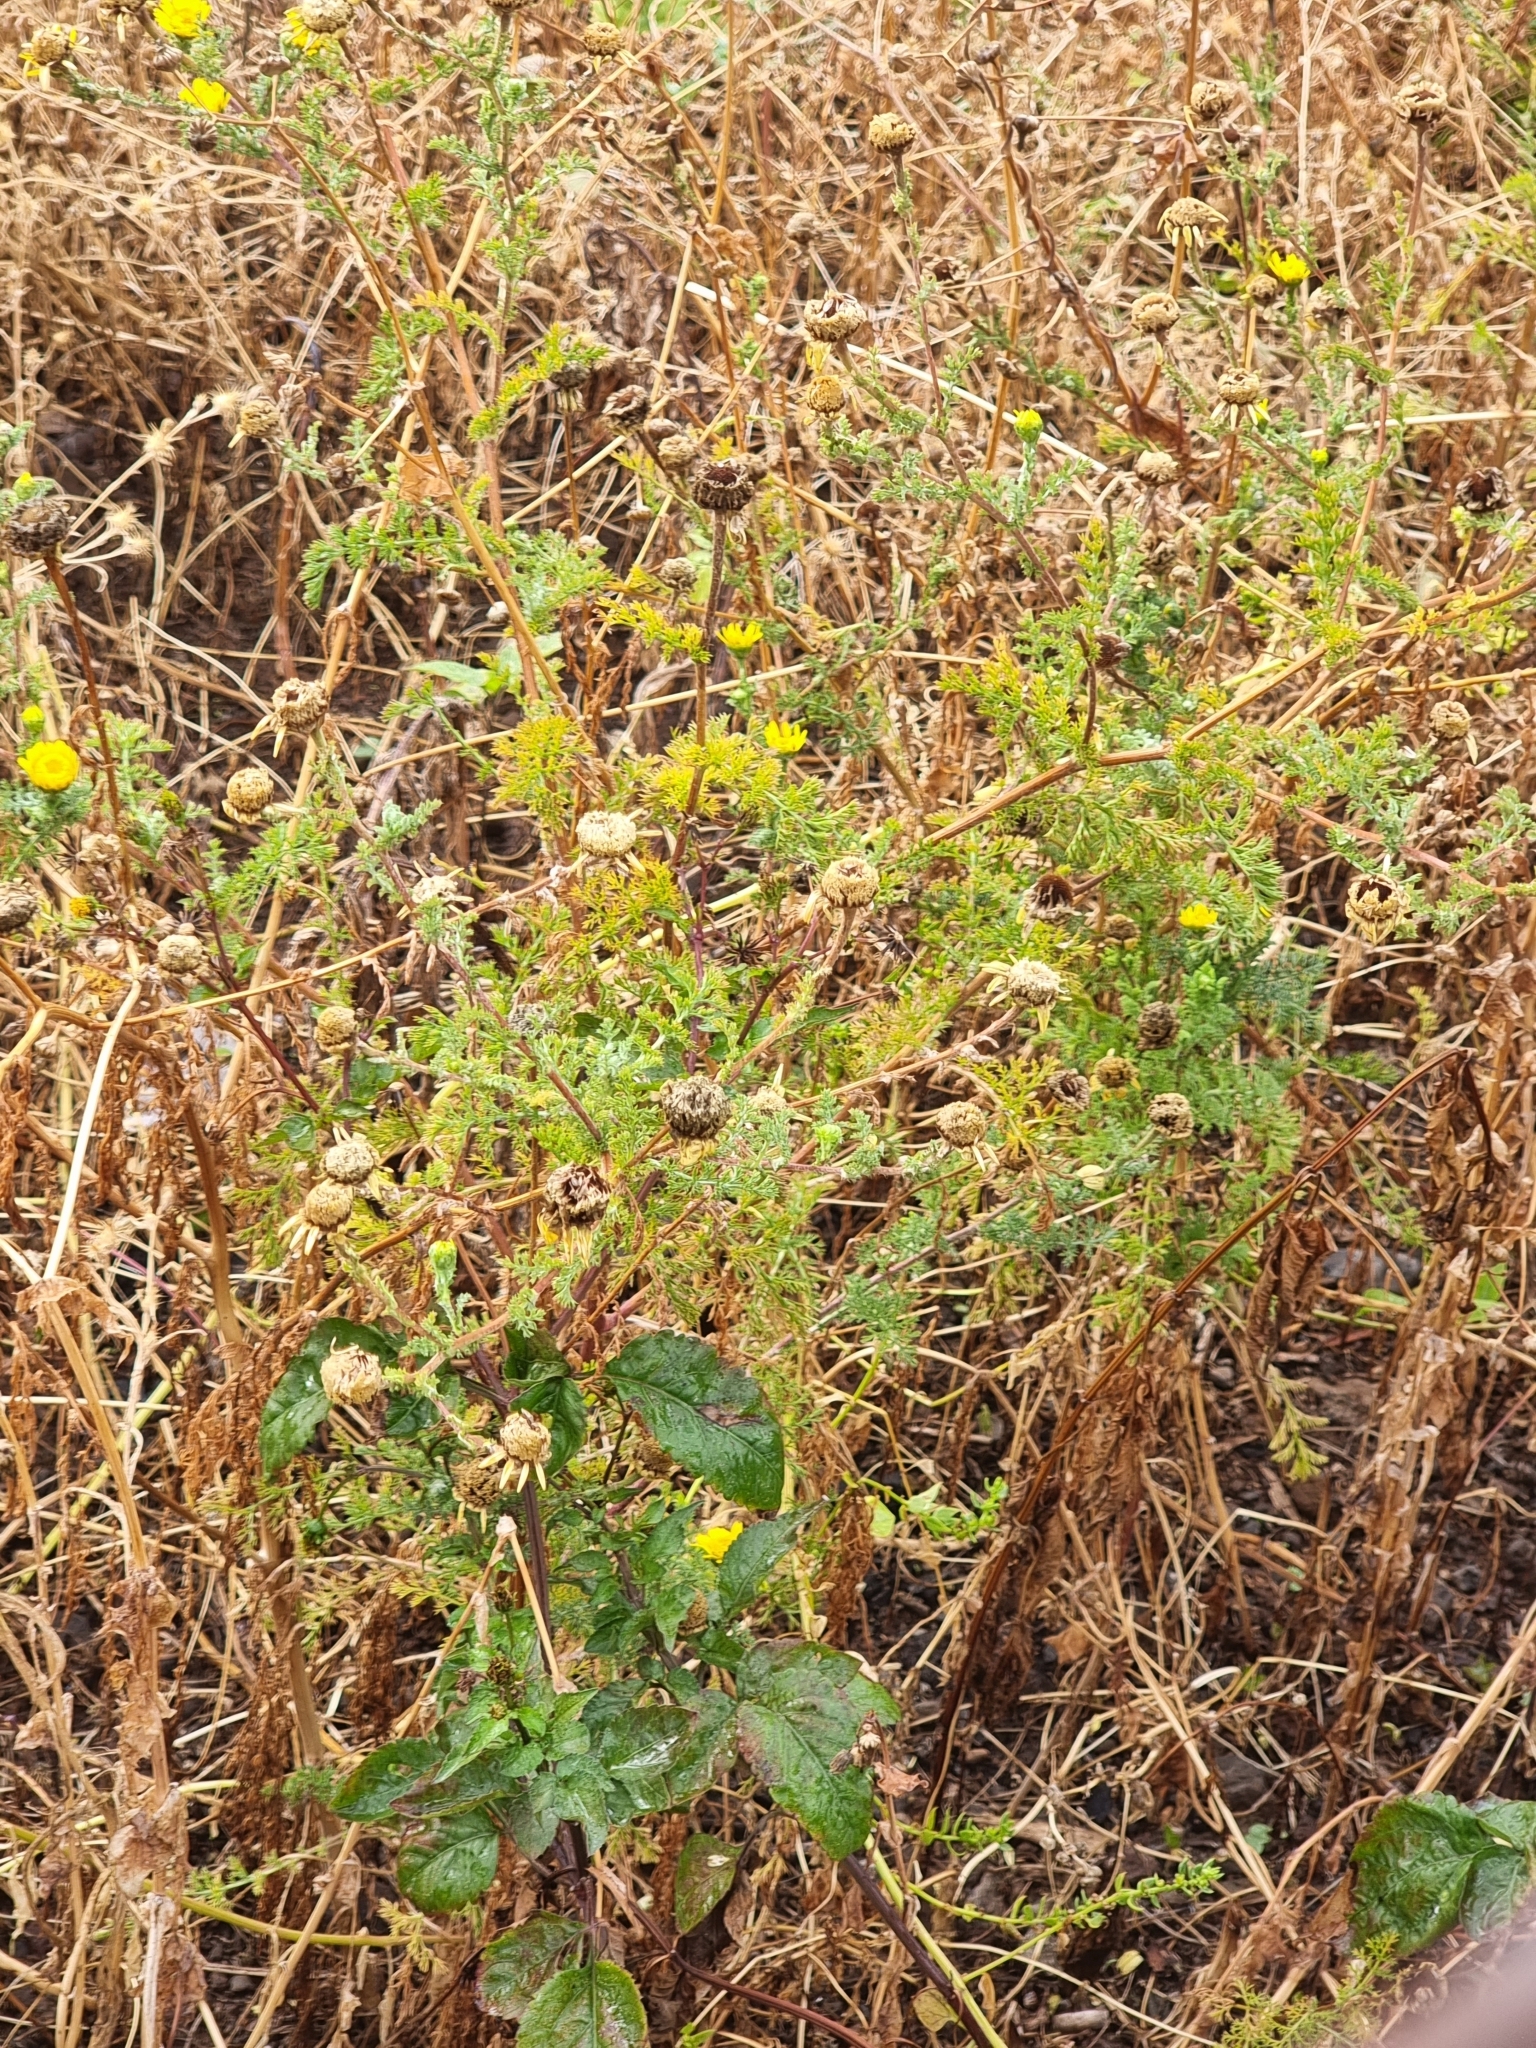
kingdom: Plantae
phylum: Tracheophyta
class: Magnoliopsida
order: Asterales
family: Asteraceae
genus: Anacyclus
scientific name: Anacyclus radiatus
